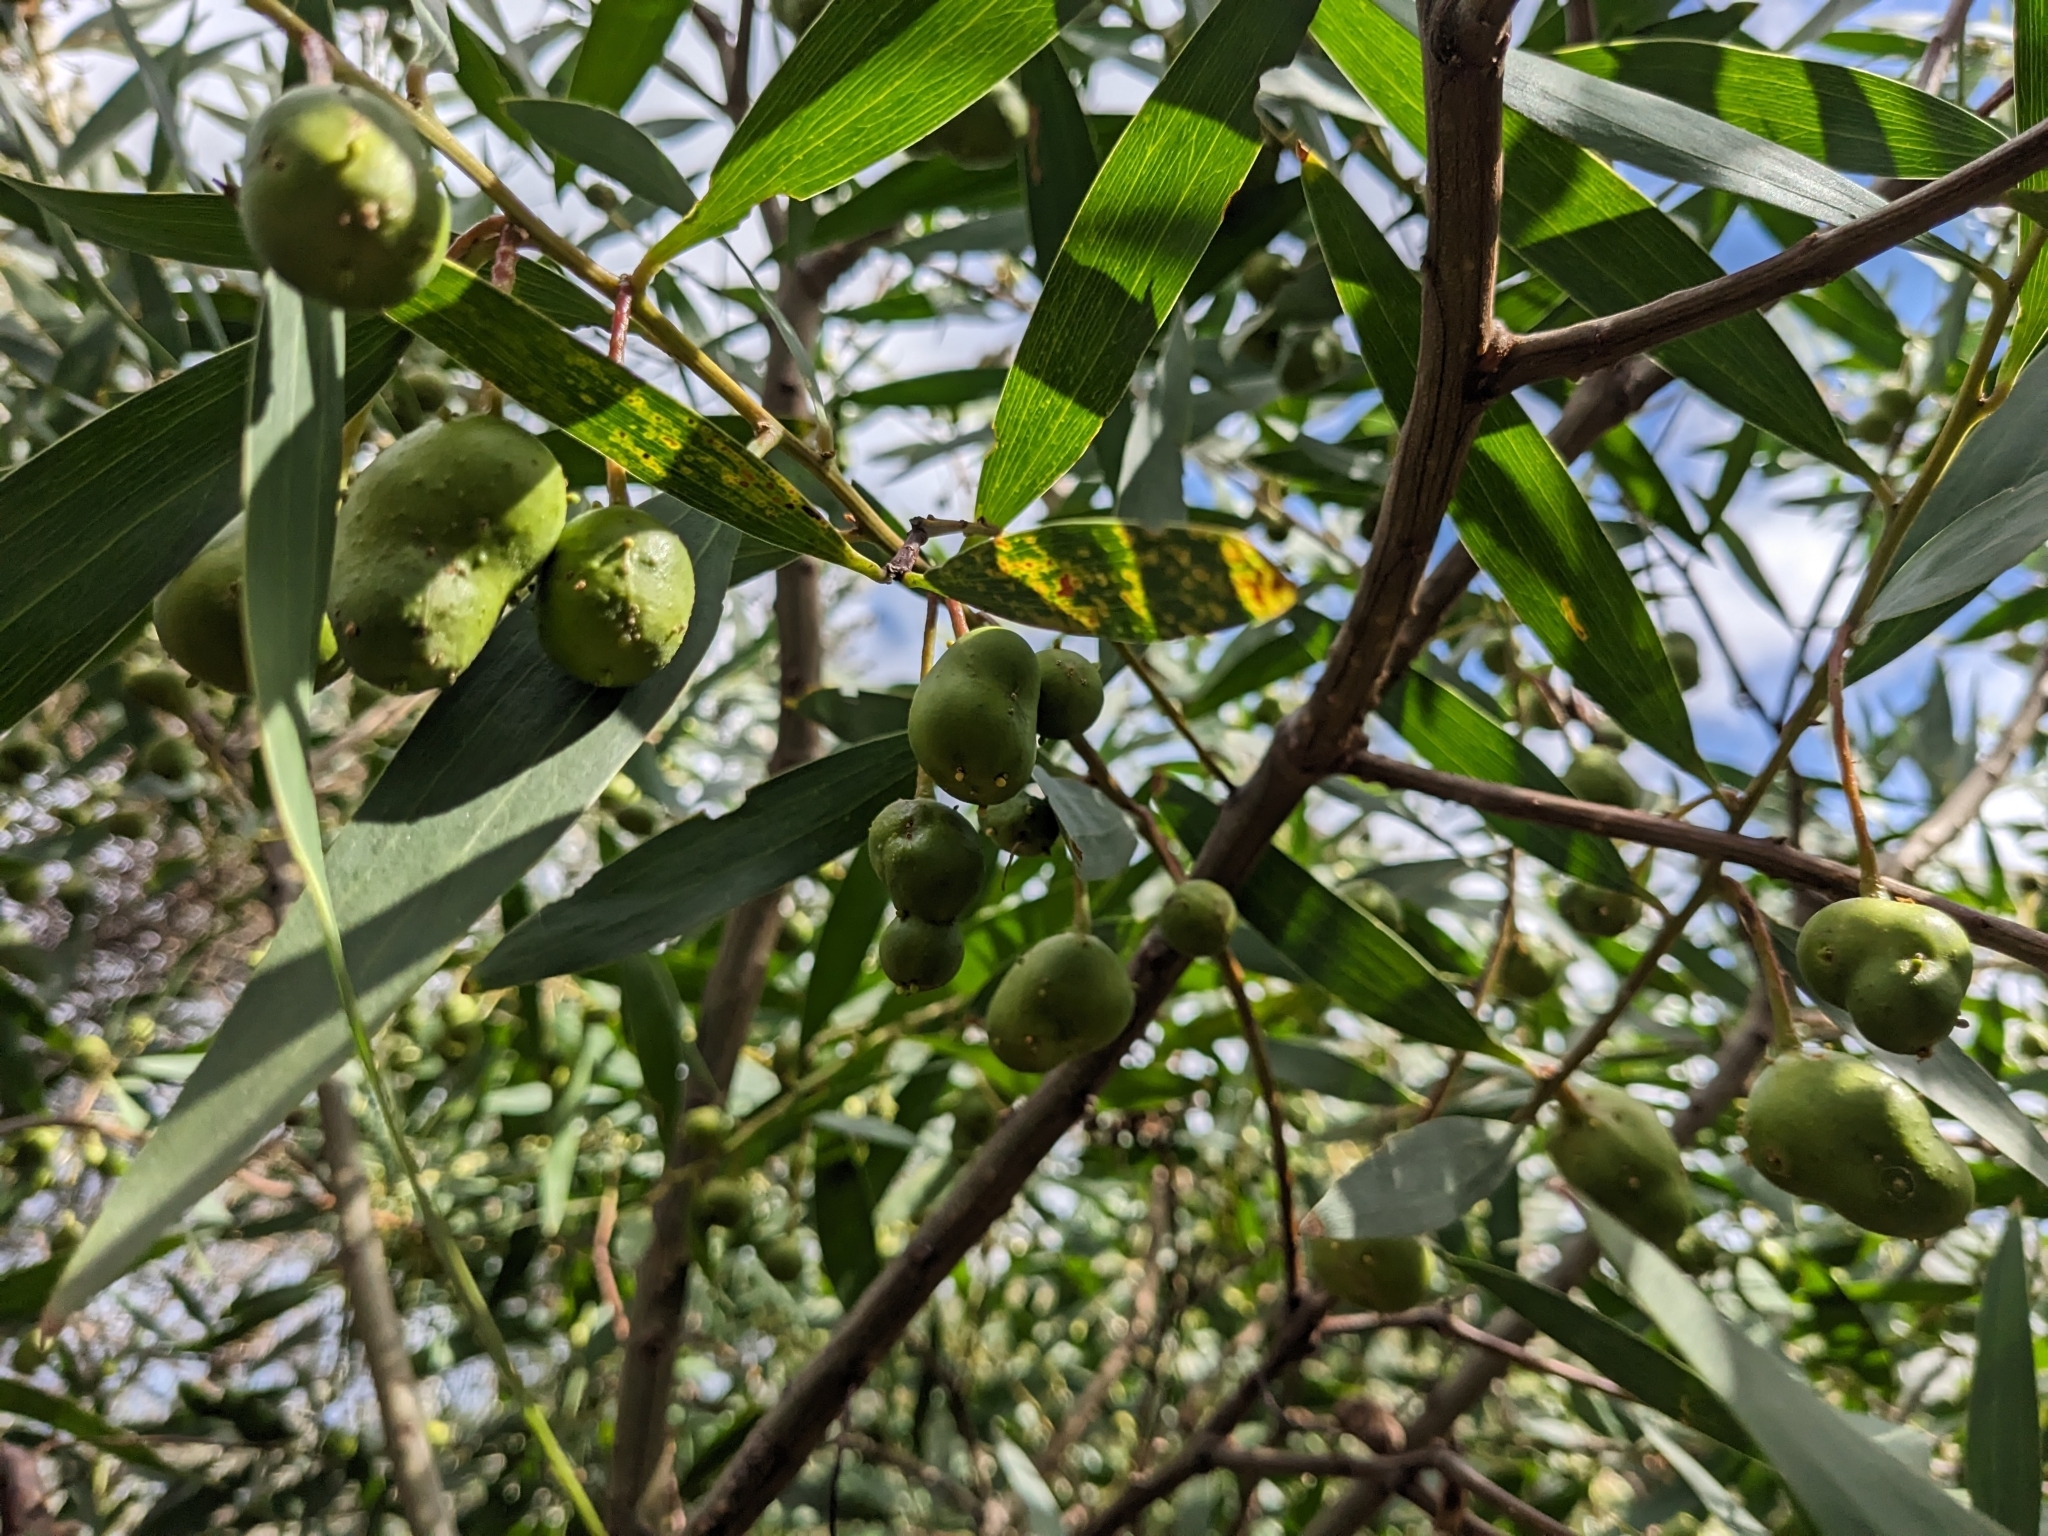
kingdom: Plantae
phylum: Tracheophyta
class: Magnoliopsida
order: Fabales
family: Fabaceae
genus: Acacia
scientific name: Acacia longifolia
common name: Sydney golden wattle
